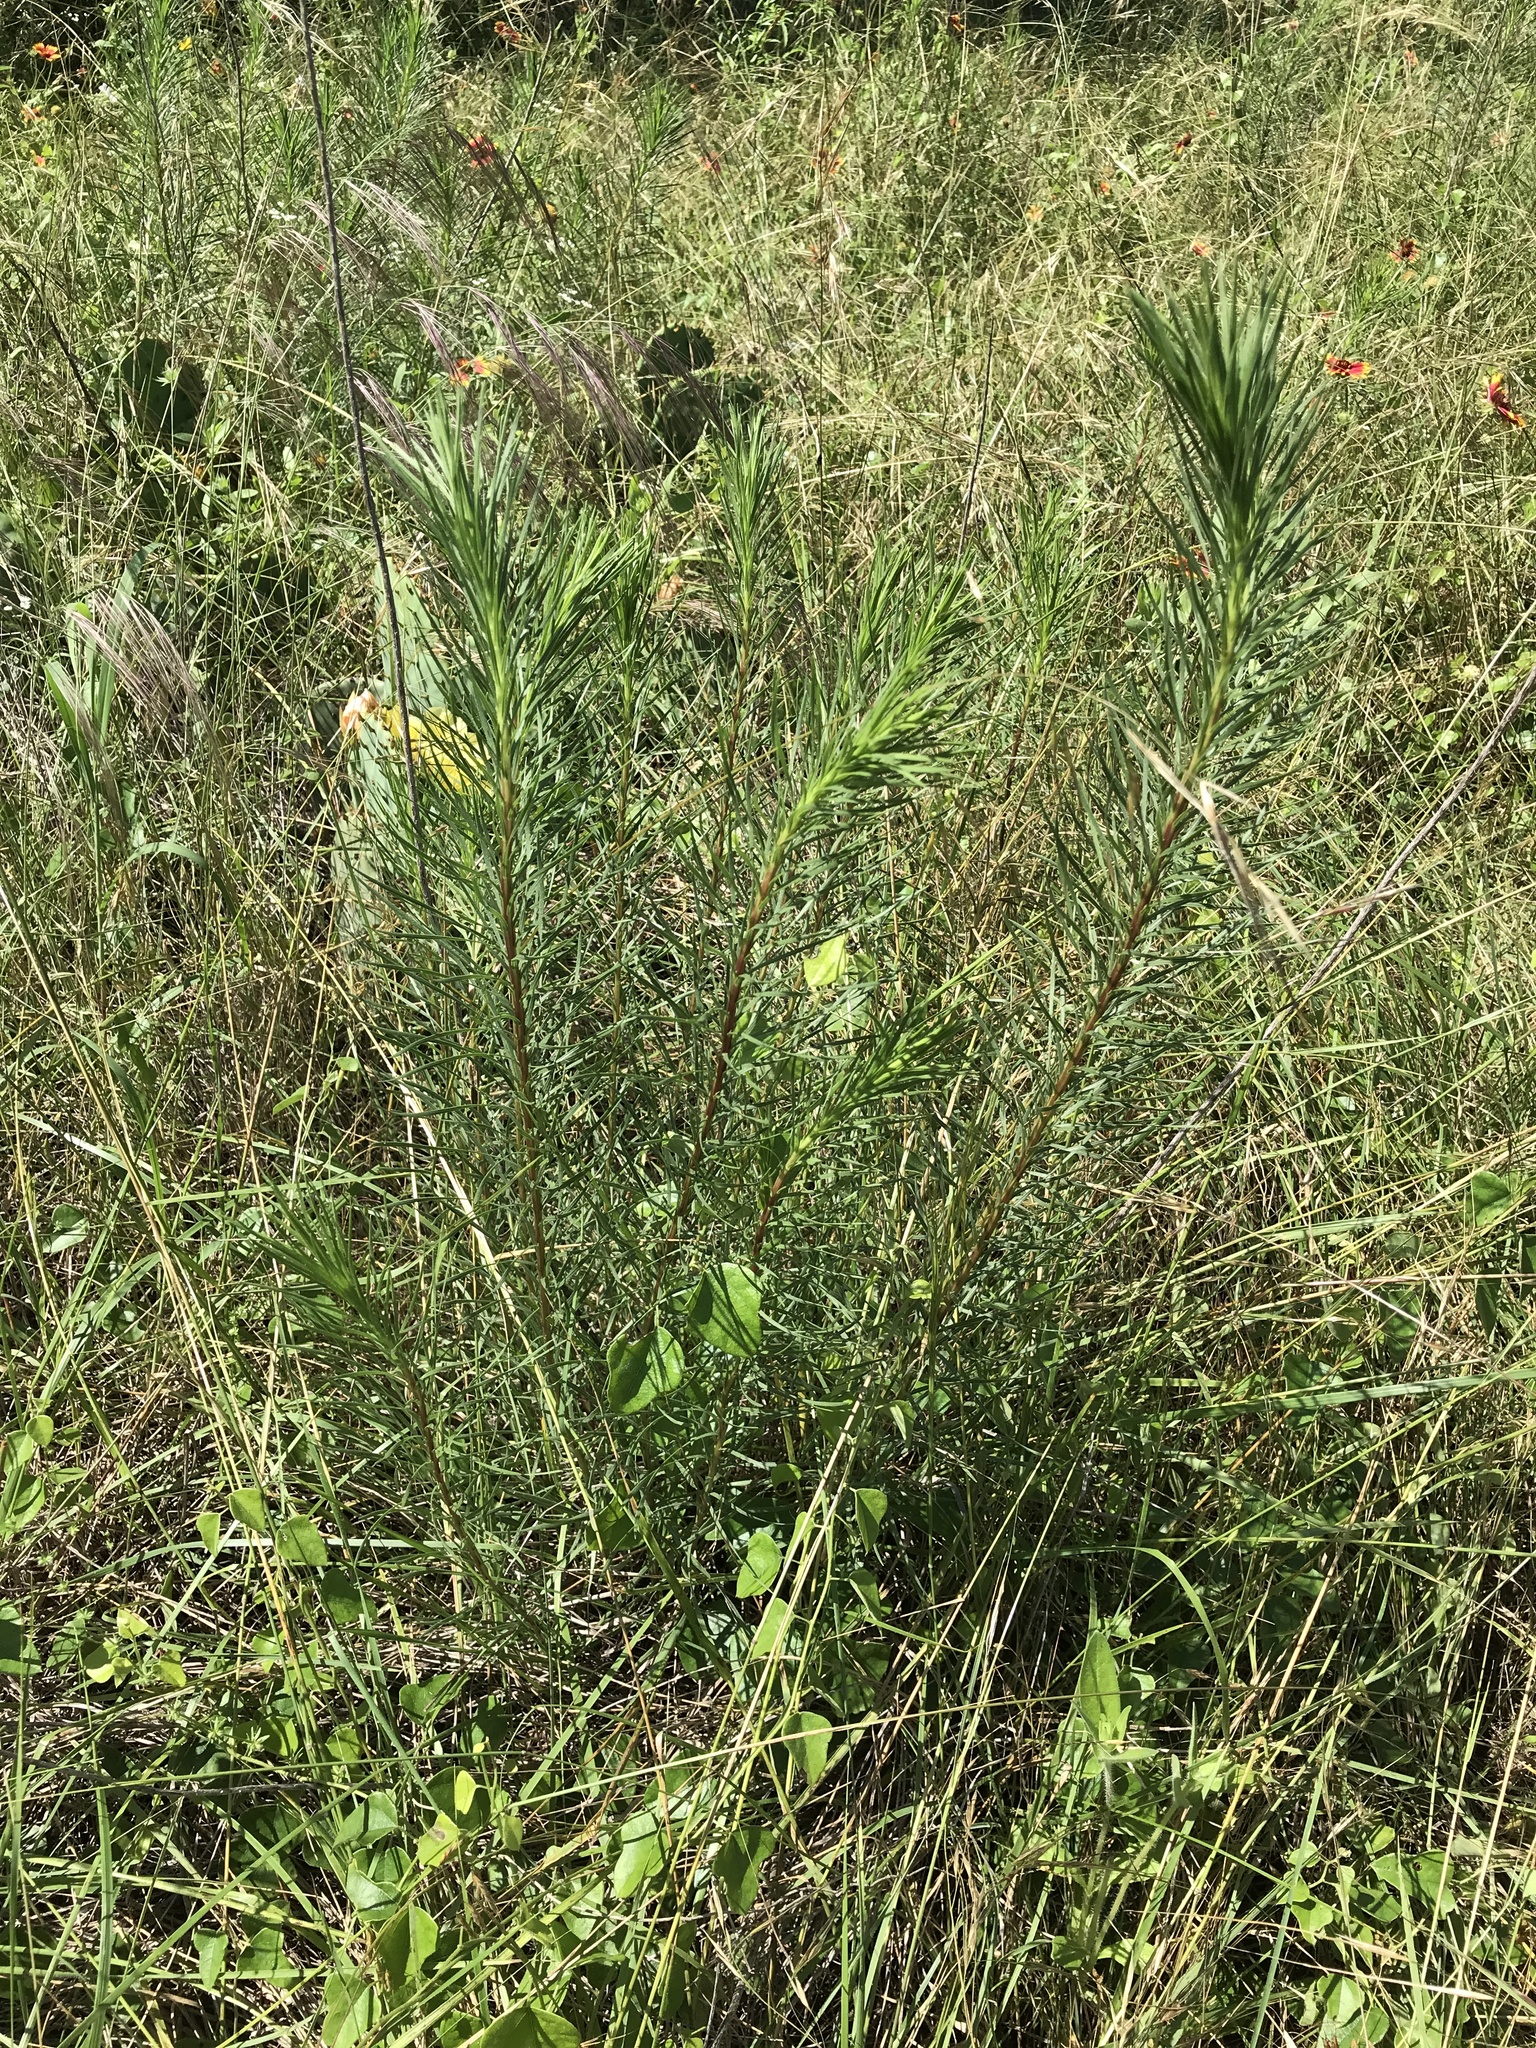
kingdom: Plantae
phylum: Tracheophyta
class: Magnoliopsida
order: Asterales
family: Asteraceae
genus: Liatris
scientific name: Liatris punctata
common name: Dotted gayfeather
